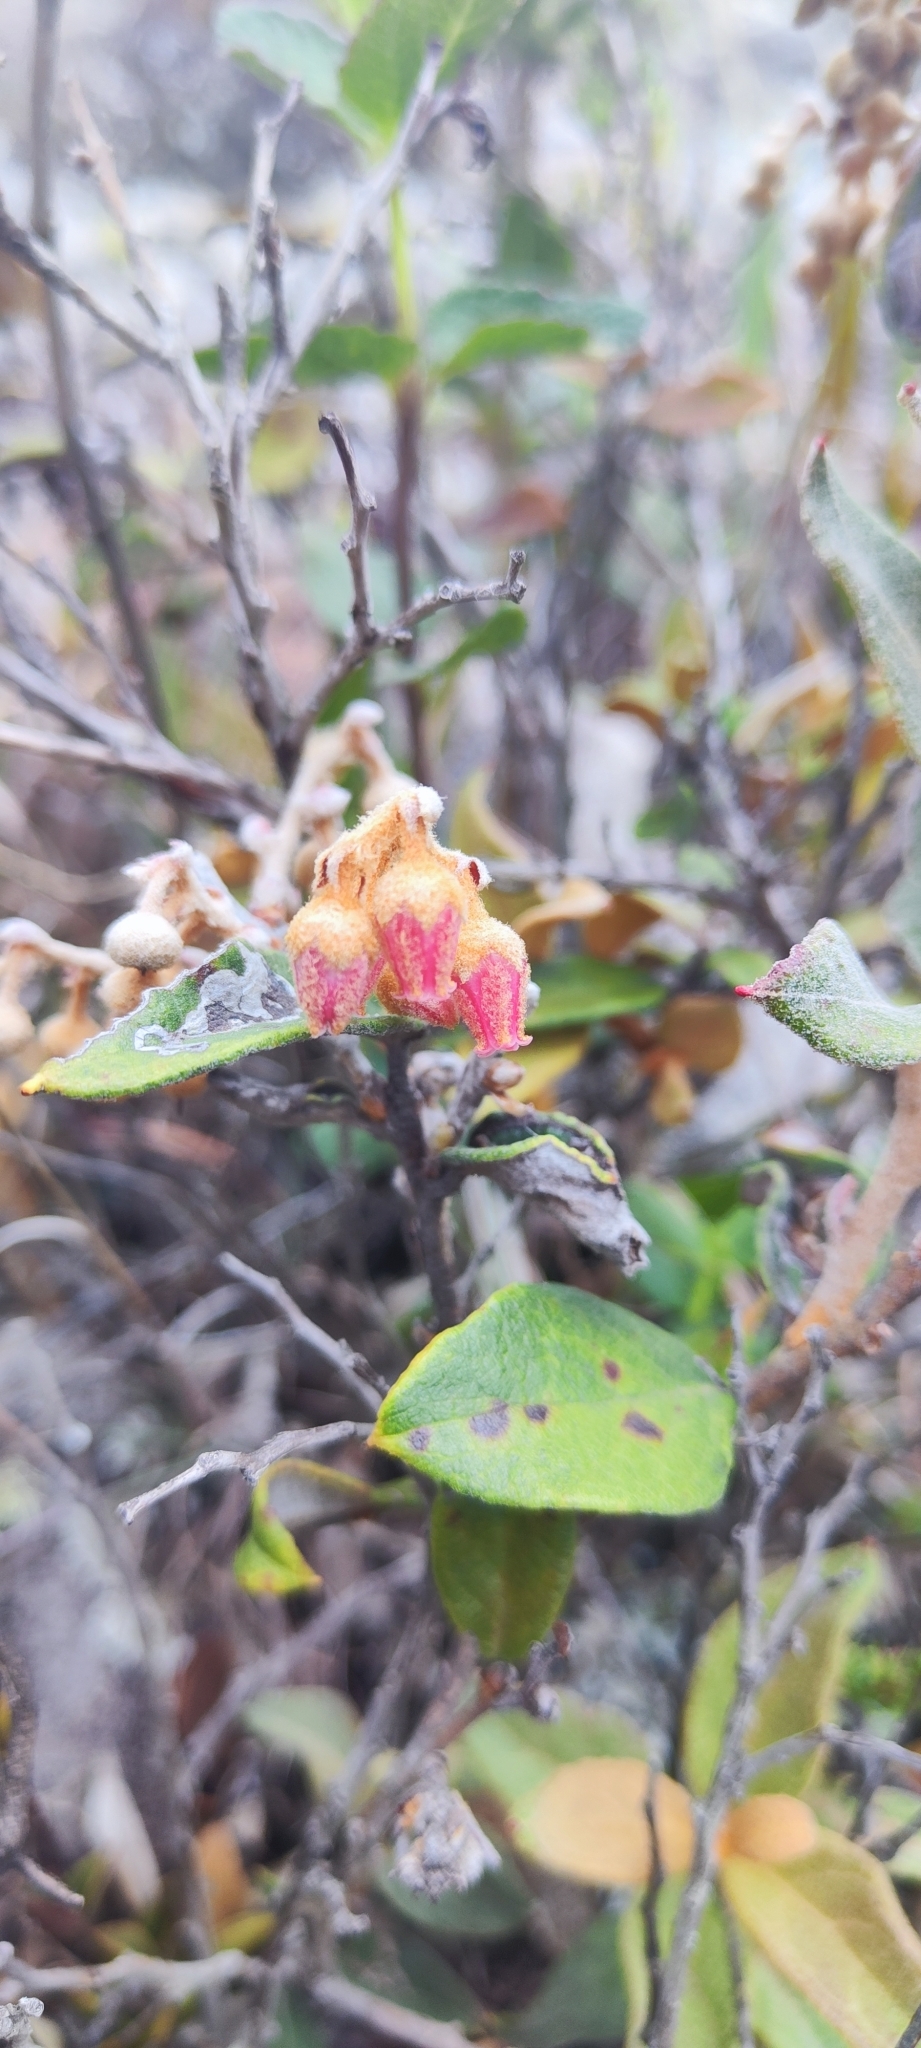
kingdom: Plantae
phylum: Tracheophyta
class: Magnoliopsida
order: Ericales
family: Ericaceae
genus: Gaultheria
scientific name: Gaultheria tomentosa
